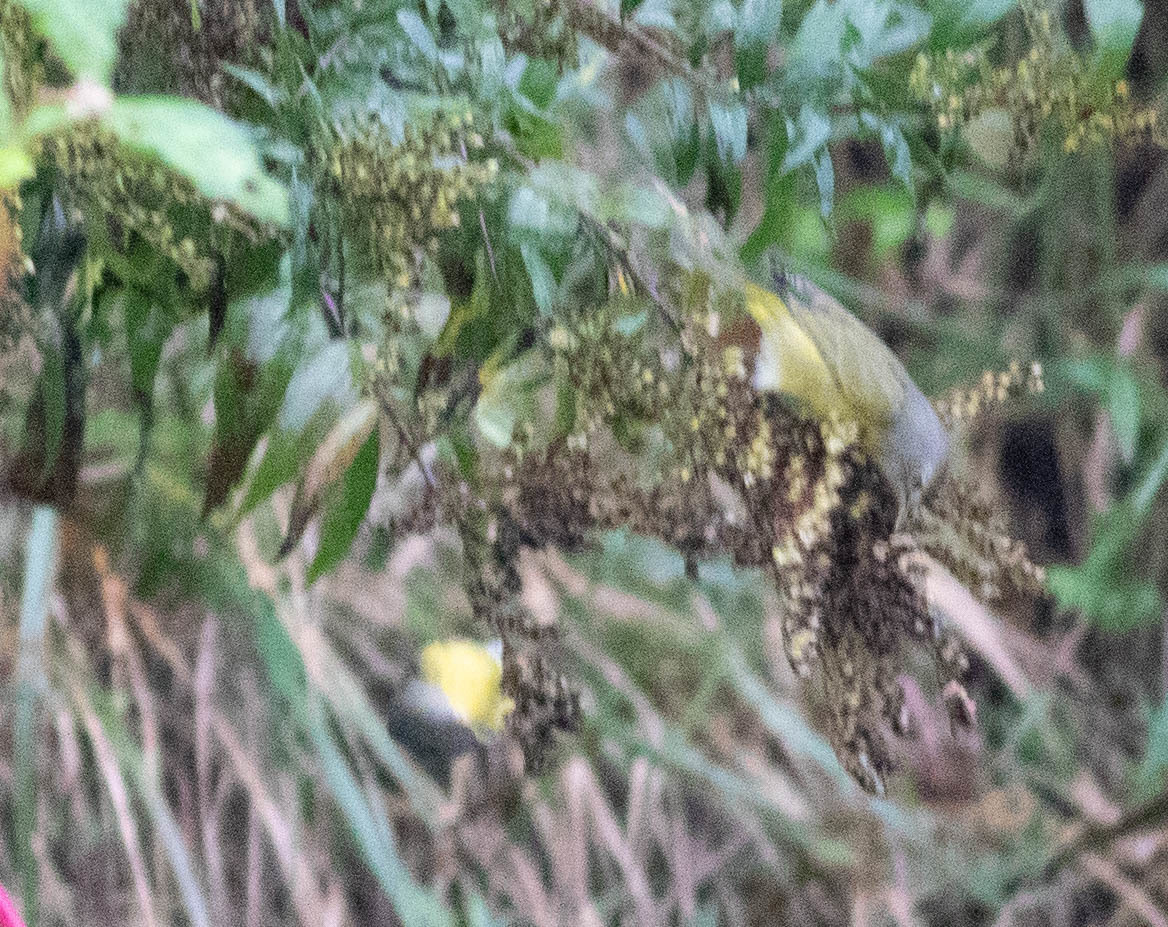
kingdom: Animalia
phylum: Chordata
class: Aves
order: Passeriformes
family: Parulidae
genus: Leiothlypis
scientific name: Leiothlypis ruficapilla
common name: Nashville warbler
